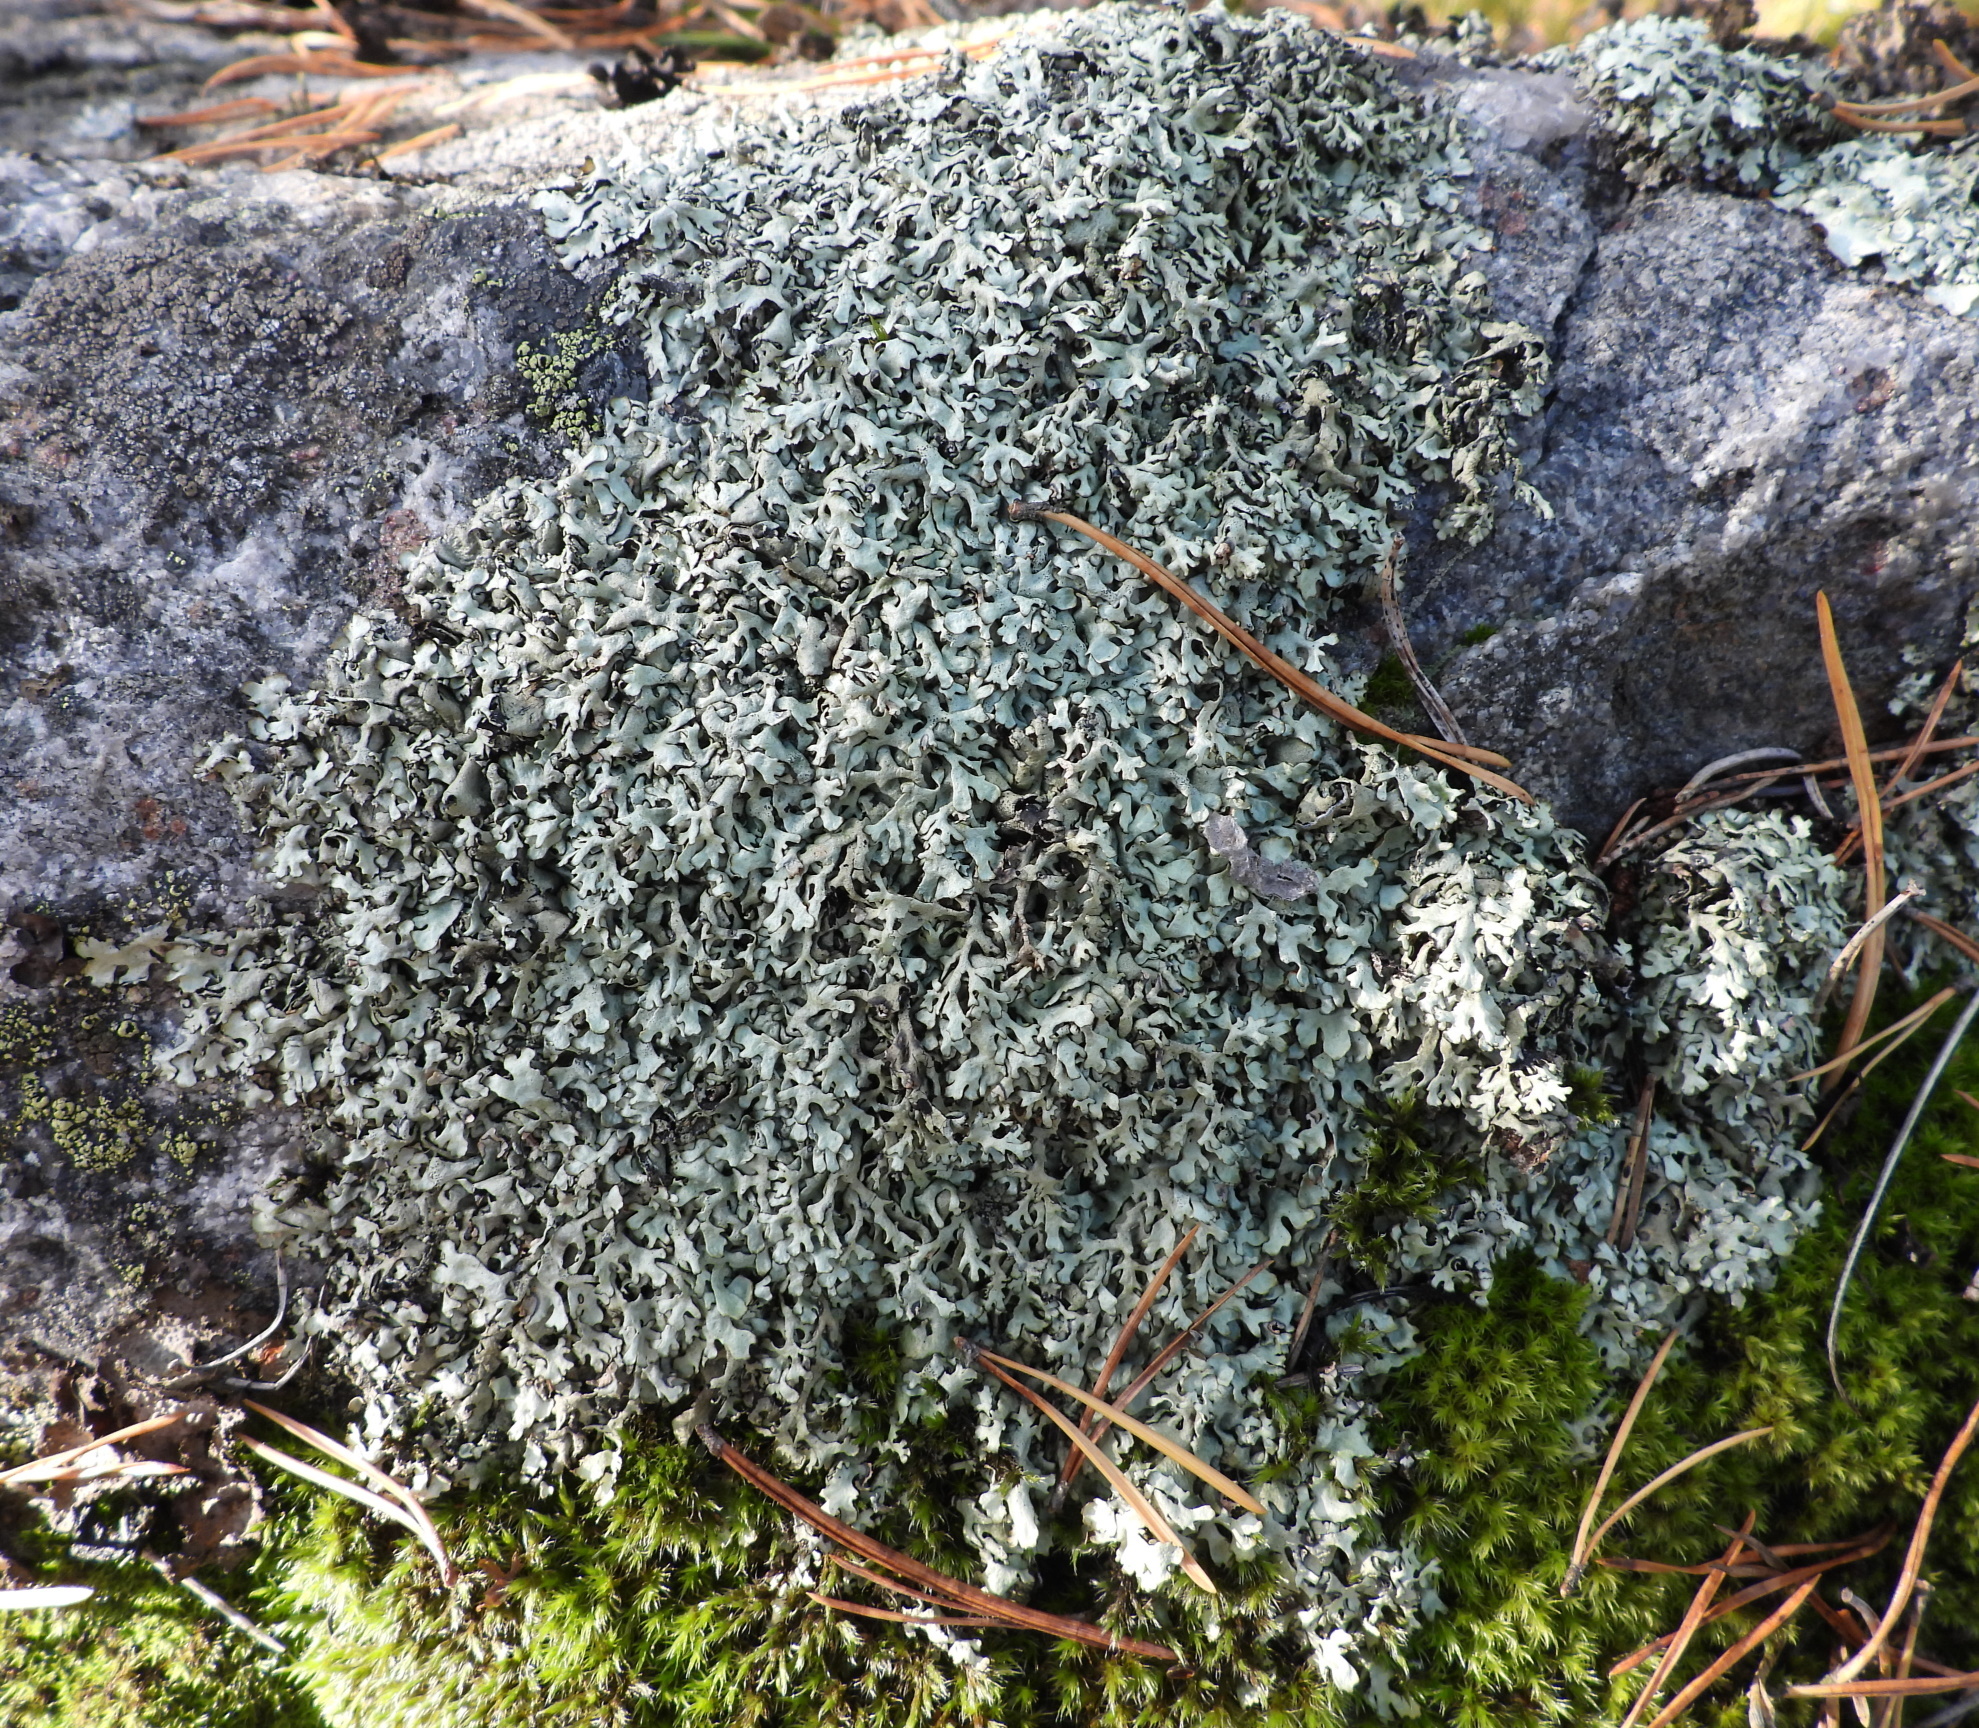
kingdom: Fungi
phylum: Ascomycota
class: Lecanoromycetes
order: Lecanorales
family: Parmeliaceae
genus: Xanthoparmelia
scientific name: Xanthoparmelia stenophylla
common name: Shingled rock shield
